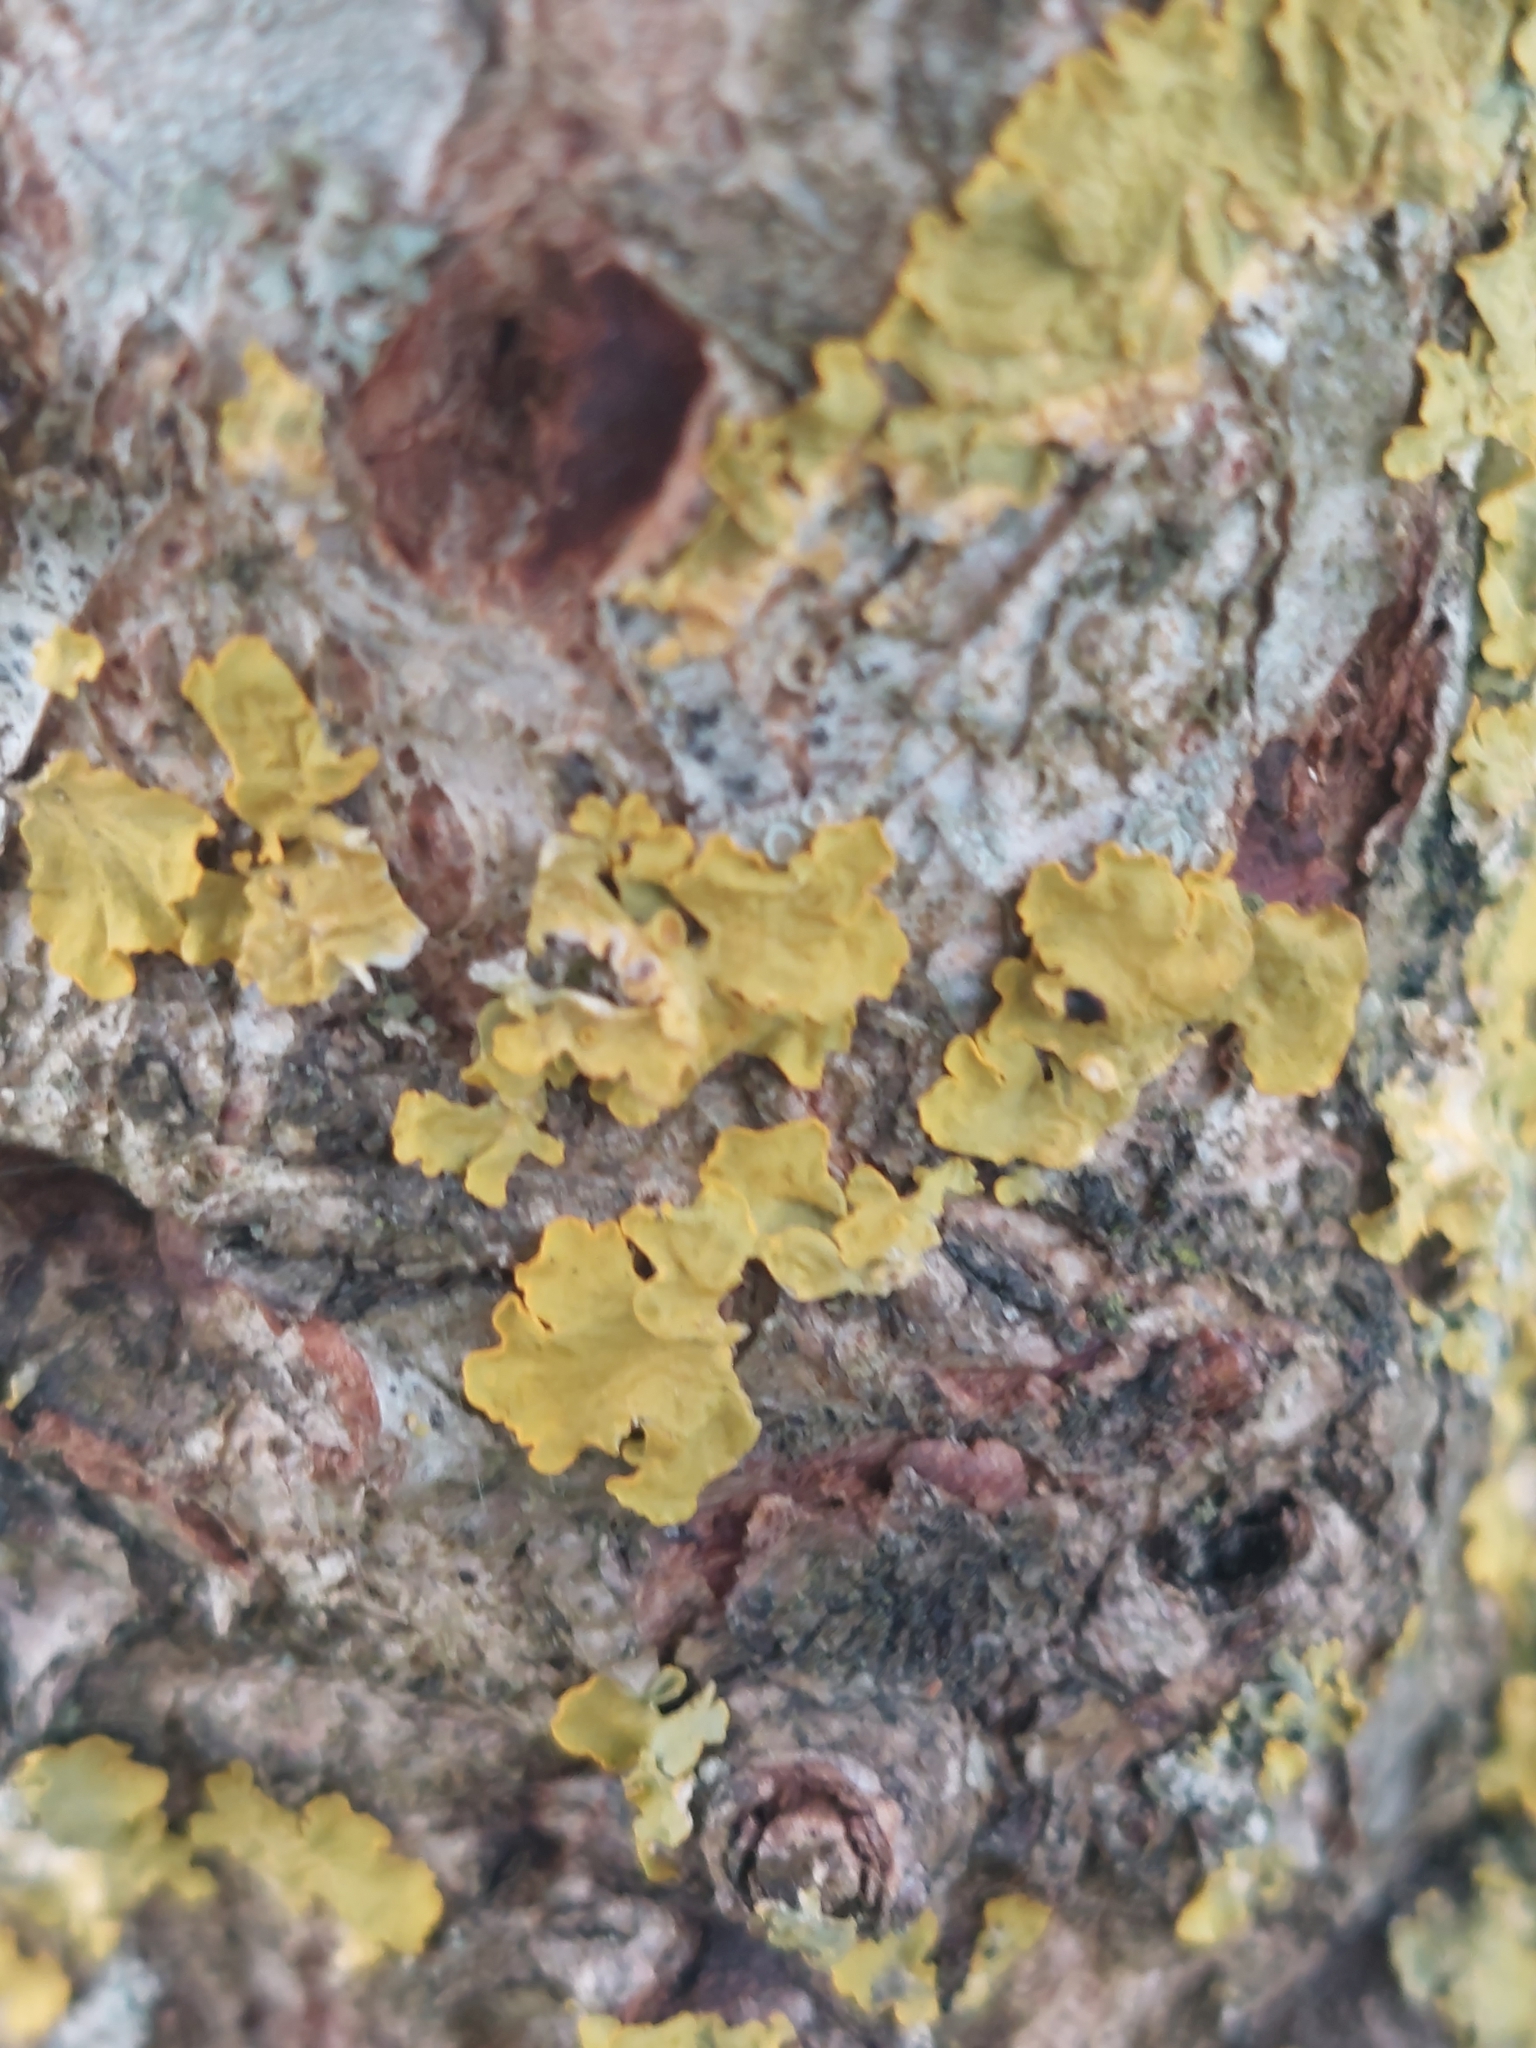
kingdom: Fungi
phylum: Ascomycota
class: Lecanoromycetes
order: Teloschistales
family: Teloschistaceae
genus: Xanthoria
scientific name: Xanthoria parietina
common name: Common orange lichen
